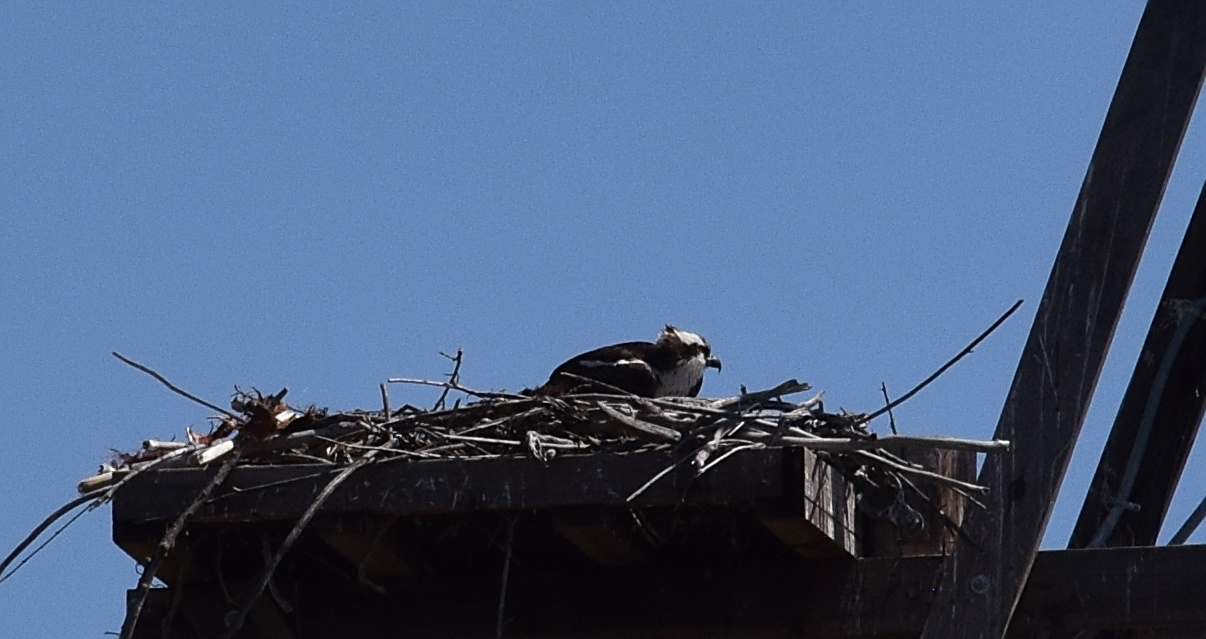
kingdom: Animalia
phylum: Chordata
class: Aves
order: Accipitriformes
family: Pandionidae
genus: Pandion
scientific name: Pandion haliaetus
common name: Osprey
